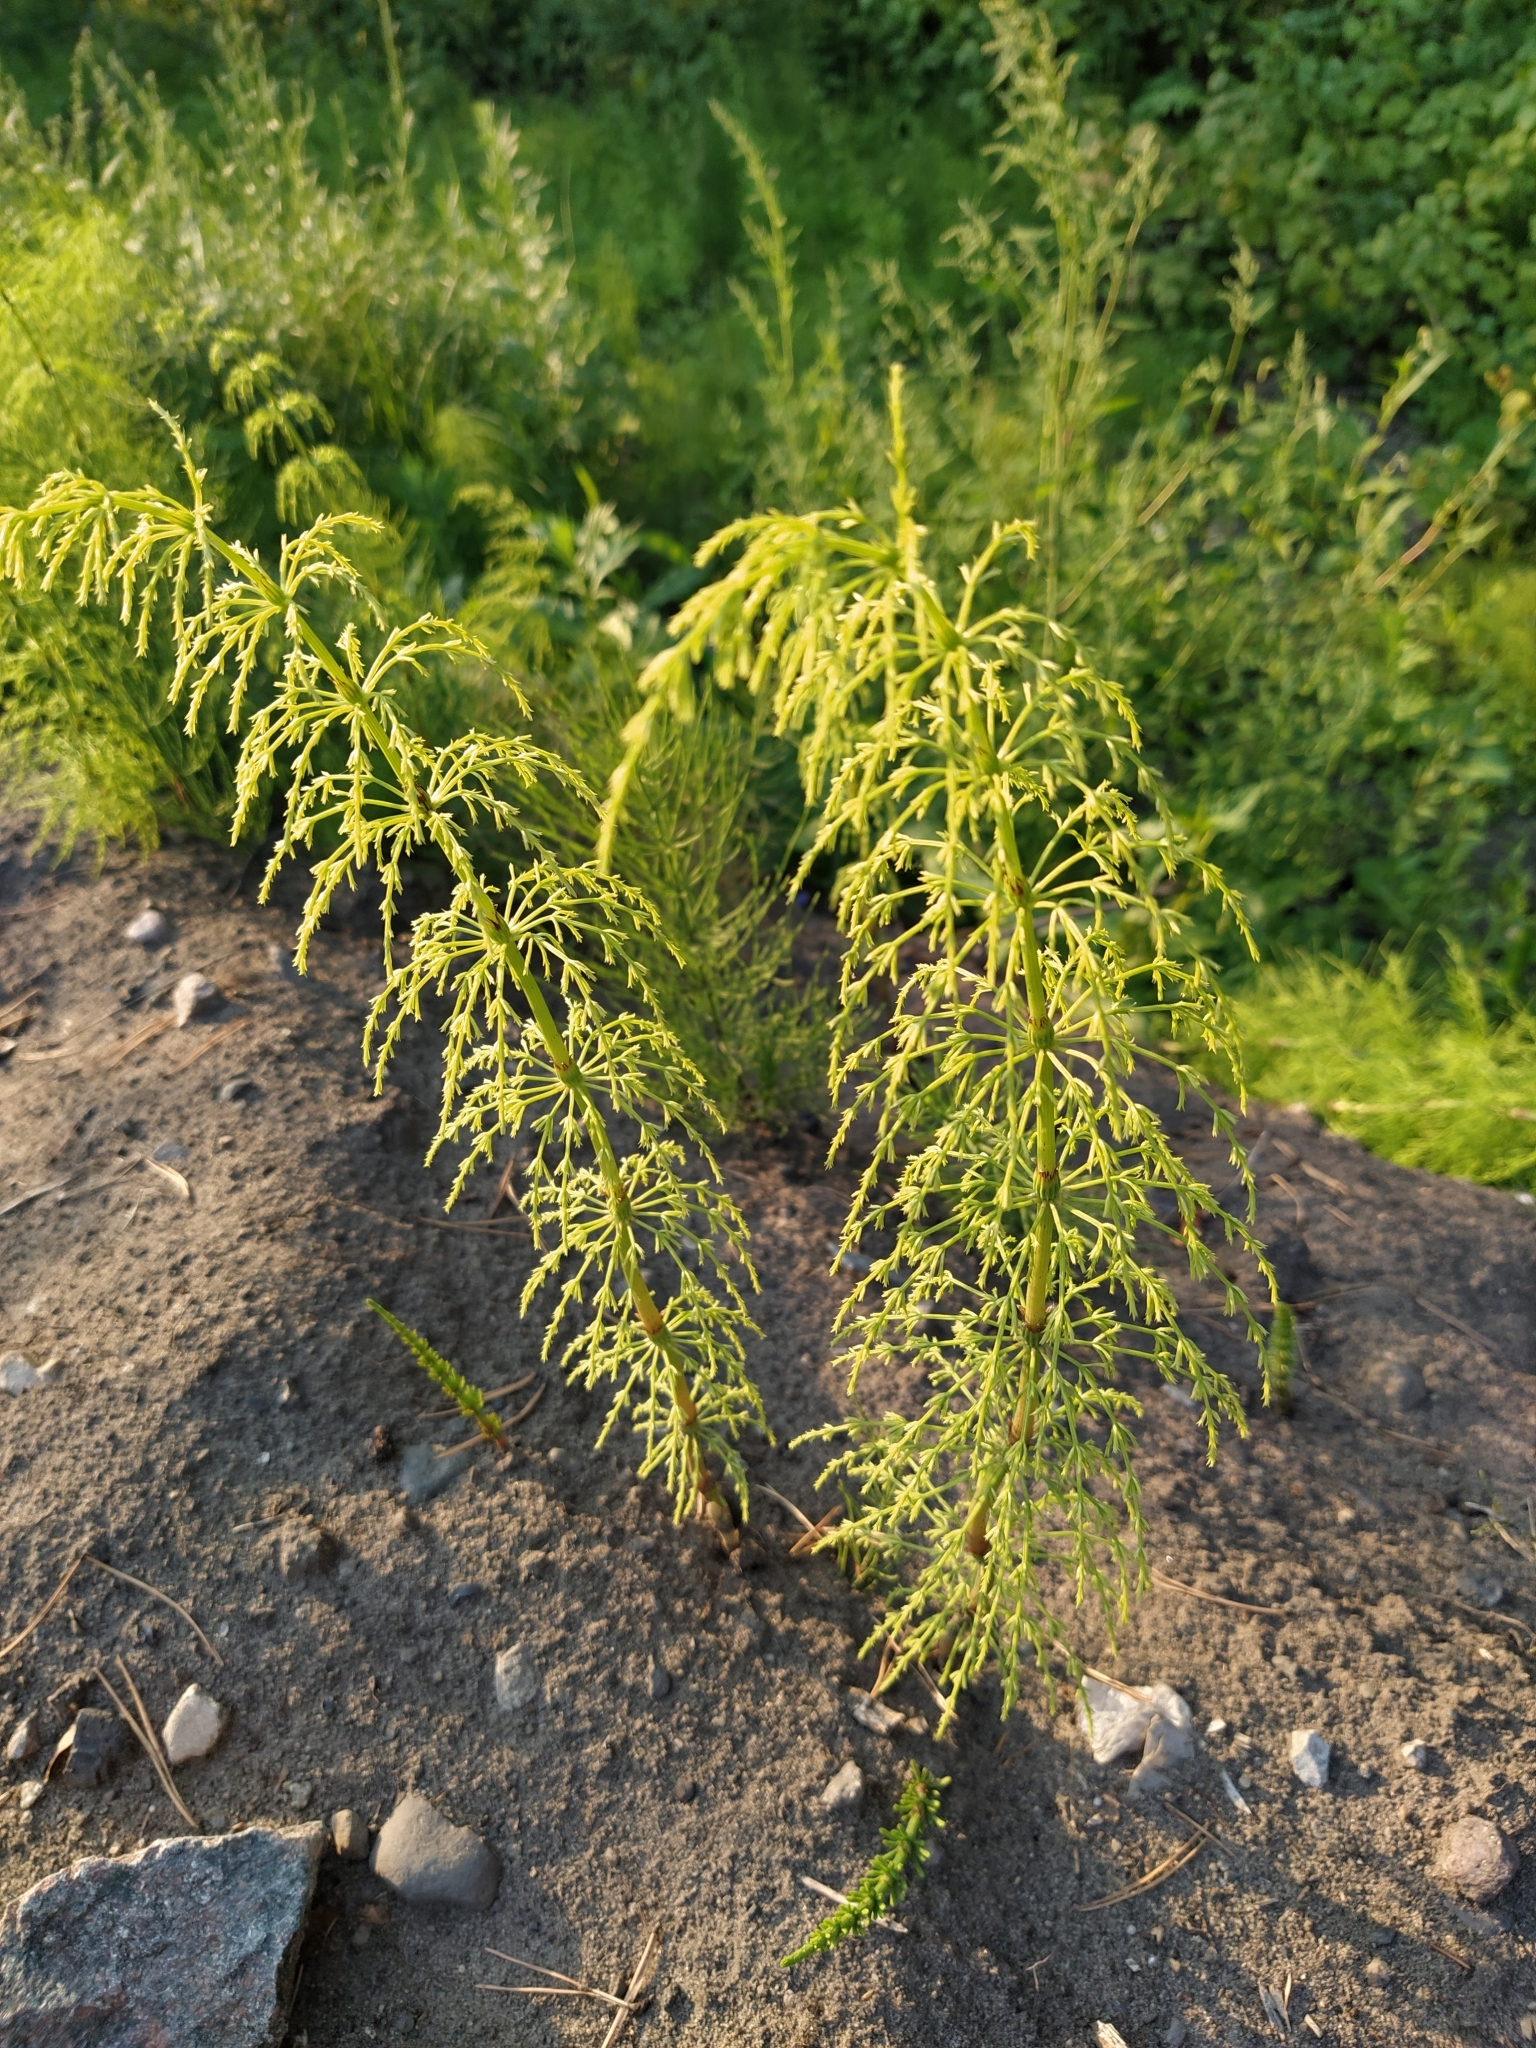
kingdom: Plantae
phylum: Tracheophyta
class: Polypodiopsida
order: Equisetales
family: Equisetaceae
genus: Equisetum
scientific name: Equisetum sylvaticum
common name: Wood horsetail
